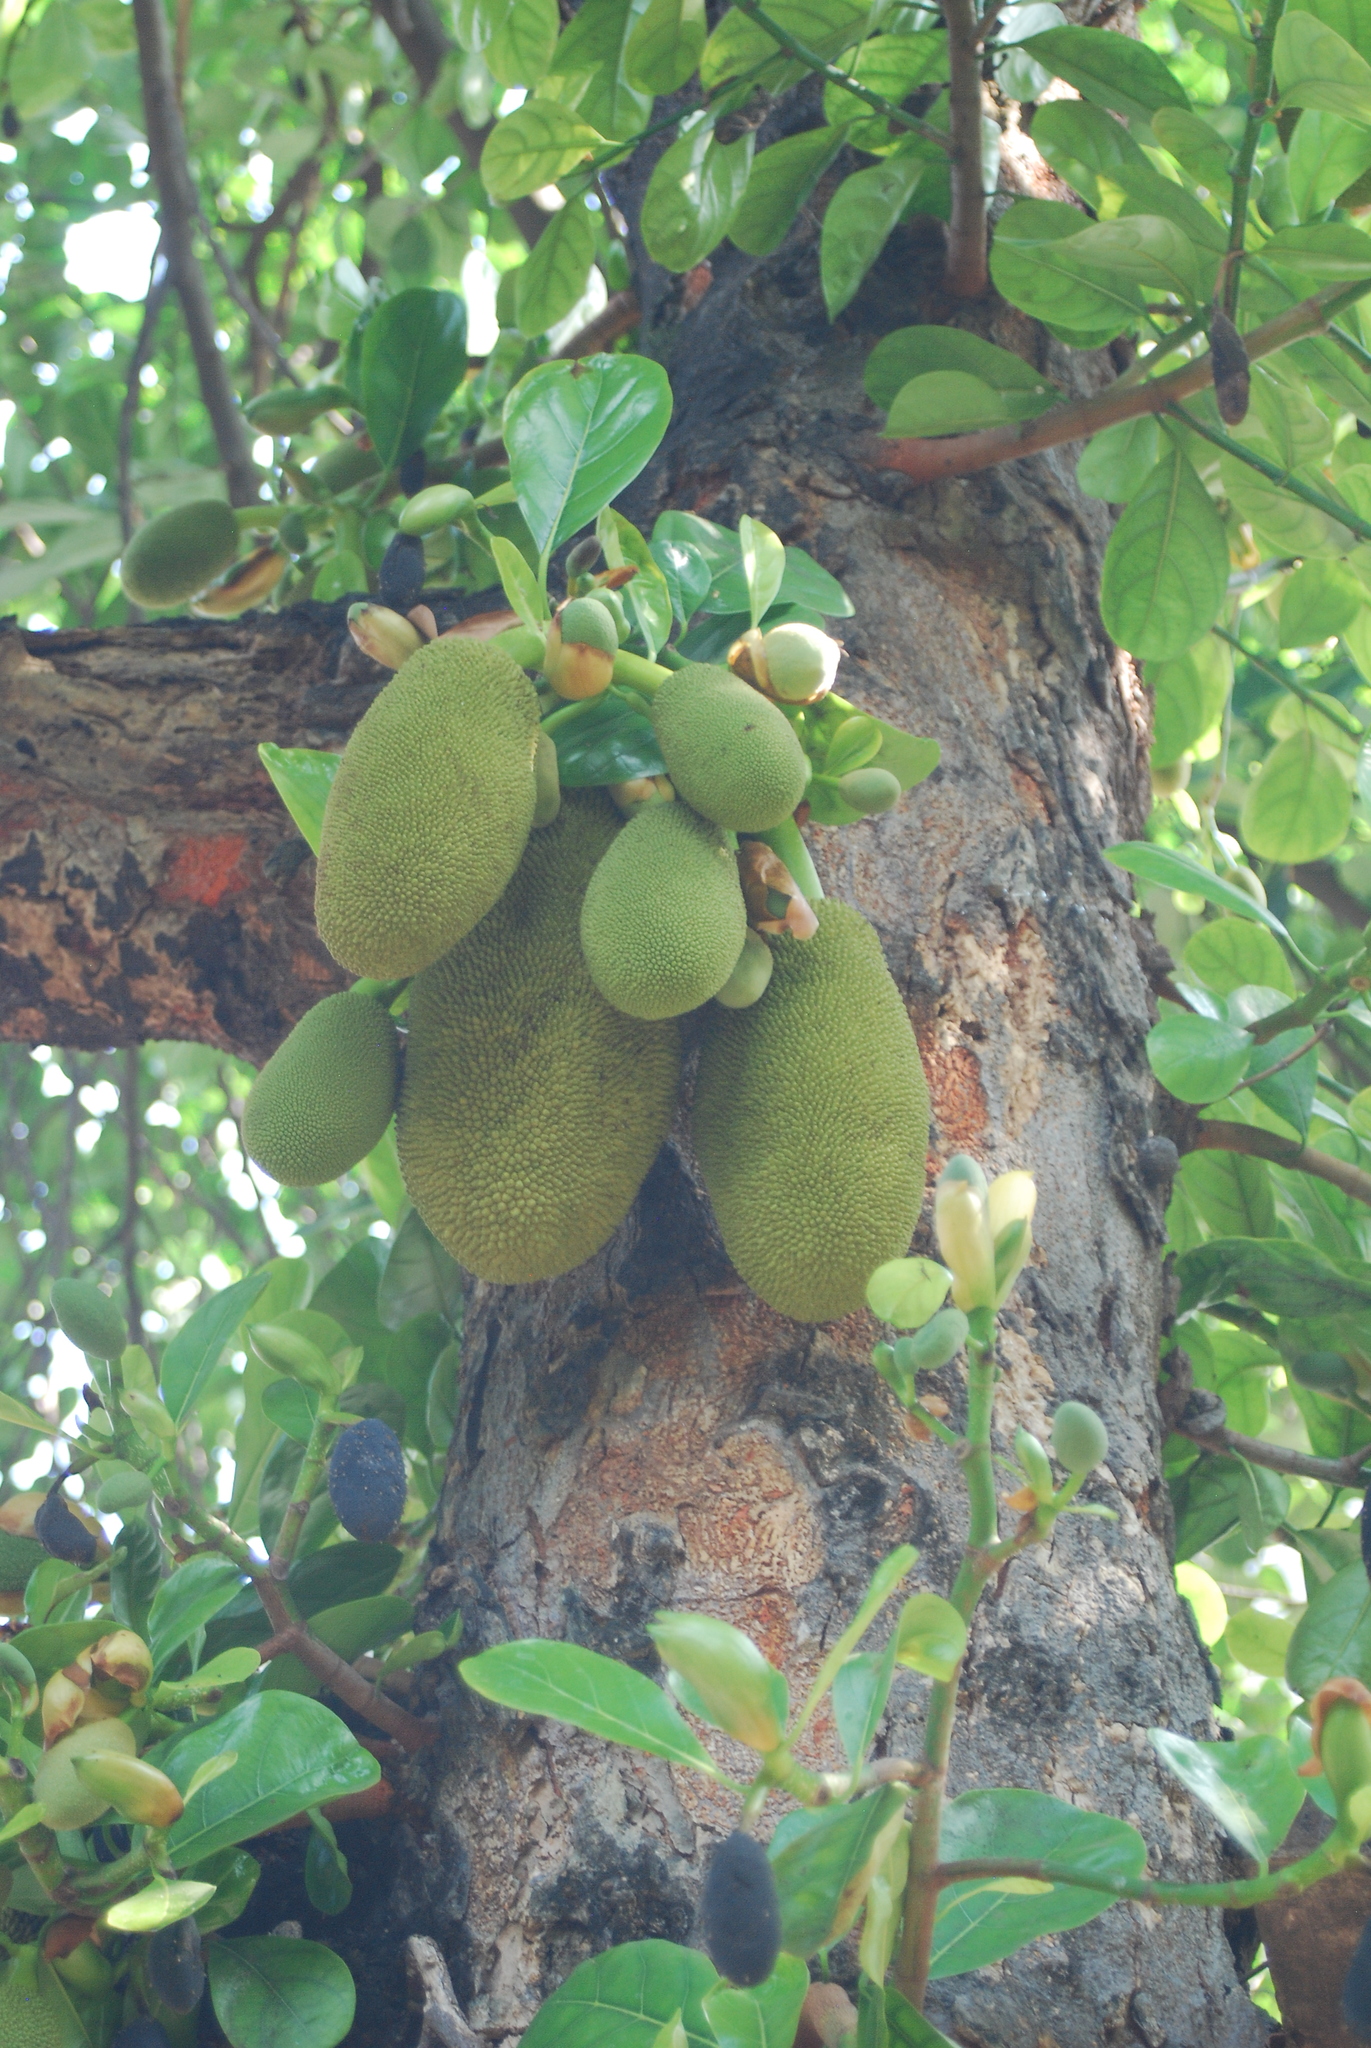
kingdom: Plantae
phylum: Tracheophyta
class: Magnoliopsida
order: Rosales
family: Moraceae
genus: Artocarpus
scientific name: Artocarpus heterophyllus
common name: Jackfruit
